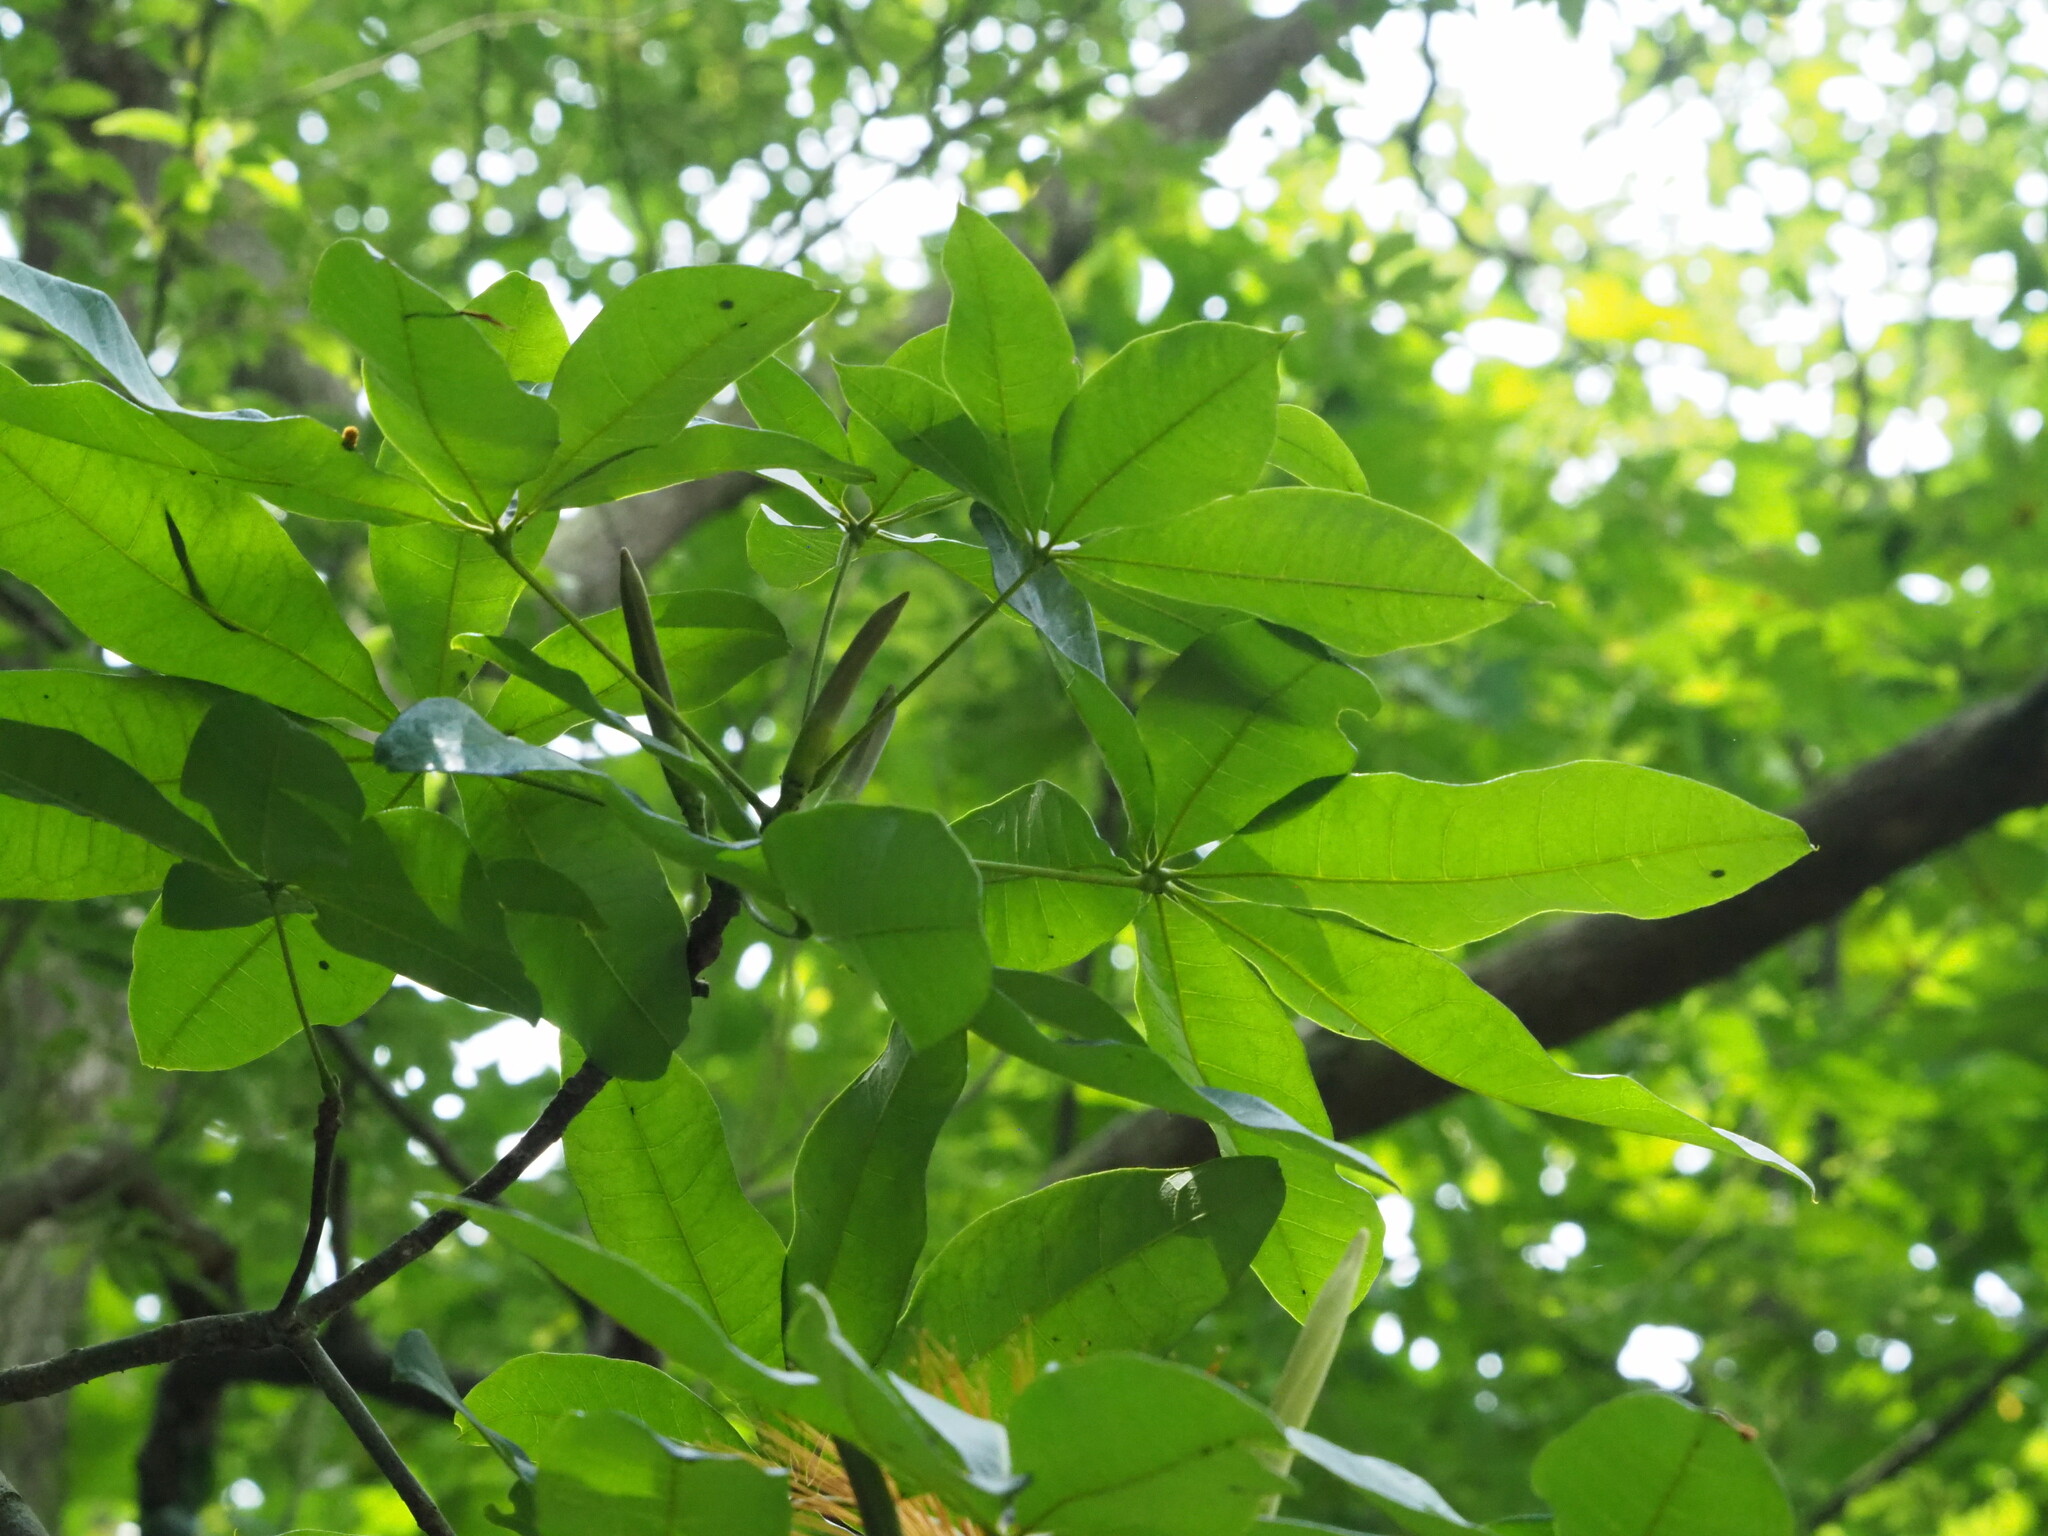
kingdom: Plantae
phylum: Tracheophyta
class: Magnoliopsida
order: Malvales
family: Malvaceae
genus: Pachira
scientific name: Pachira glabra
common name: Moneytree
